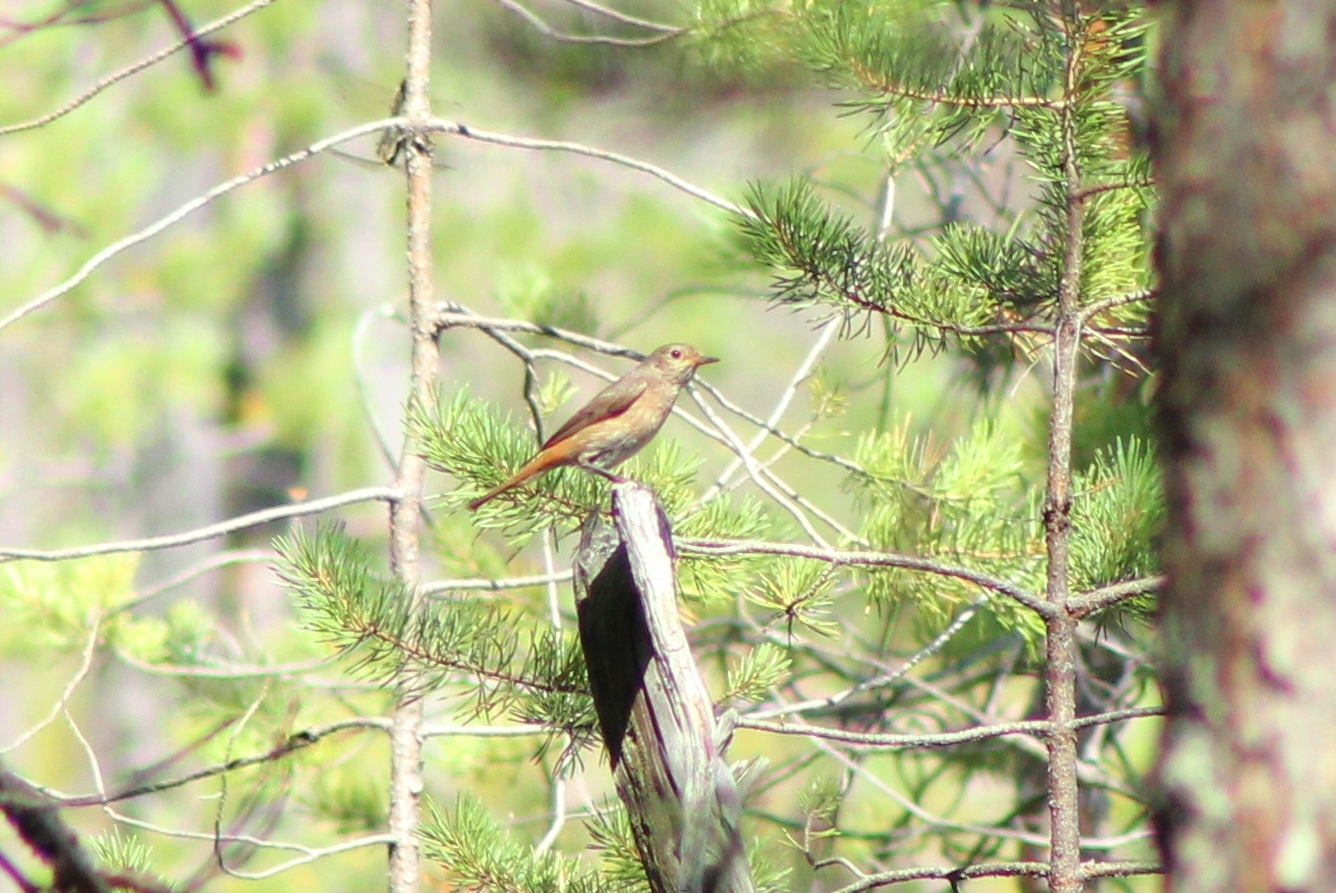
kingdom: Animalia
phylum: Chordata
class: Aves
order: Passeriformes
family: Muscicapidae
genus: Phoenicurus
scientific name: Phoenicurus phoenicurus
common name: Common redstart
